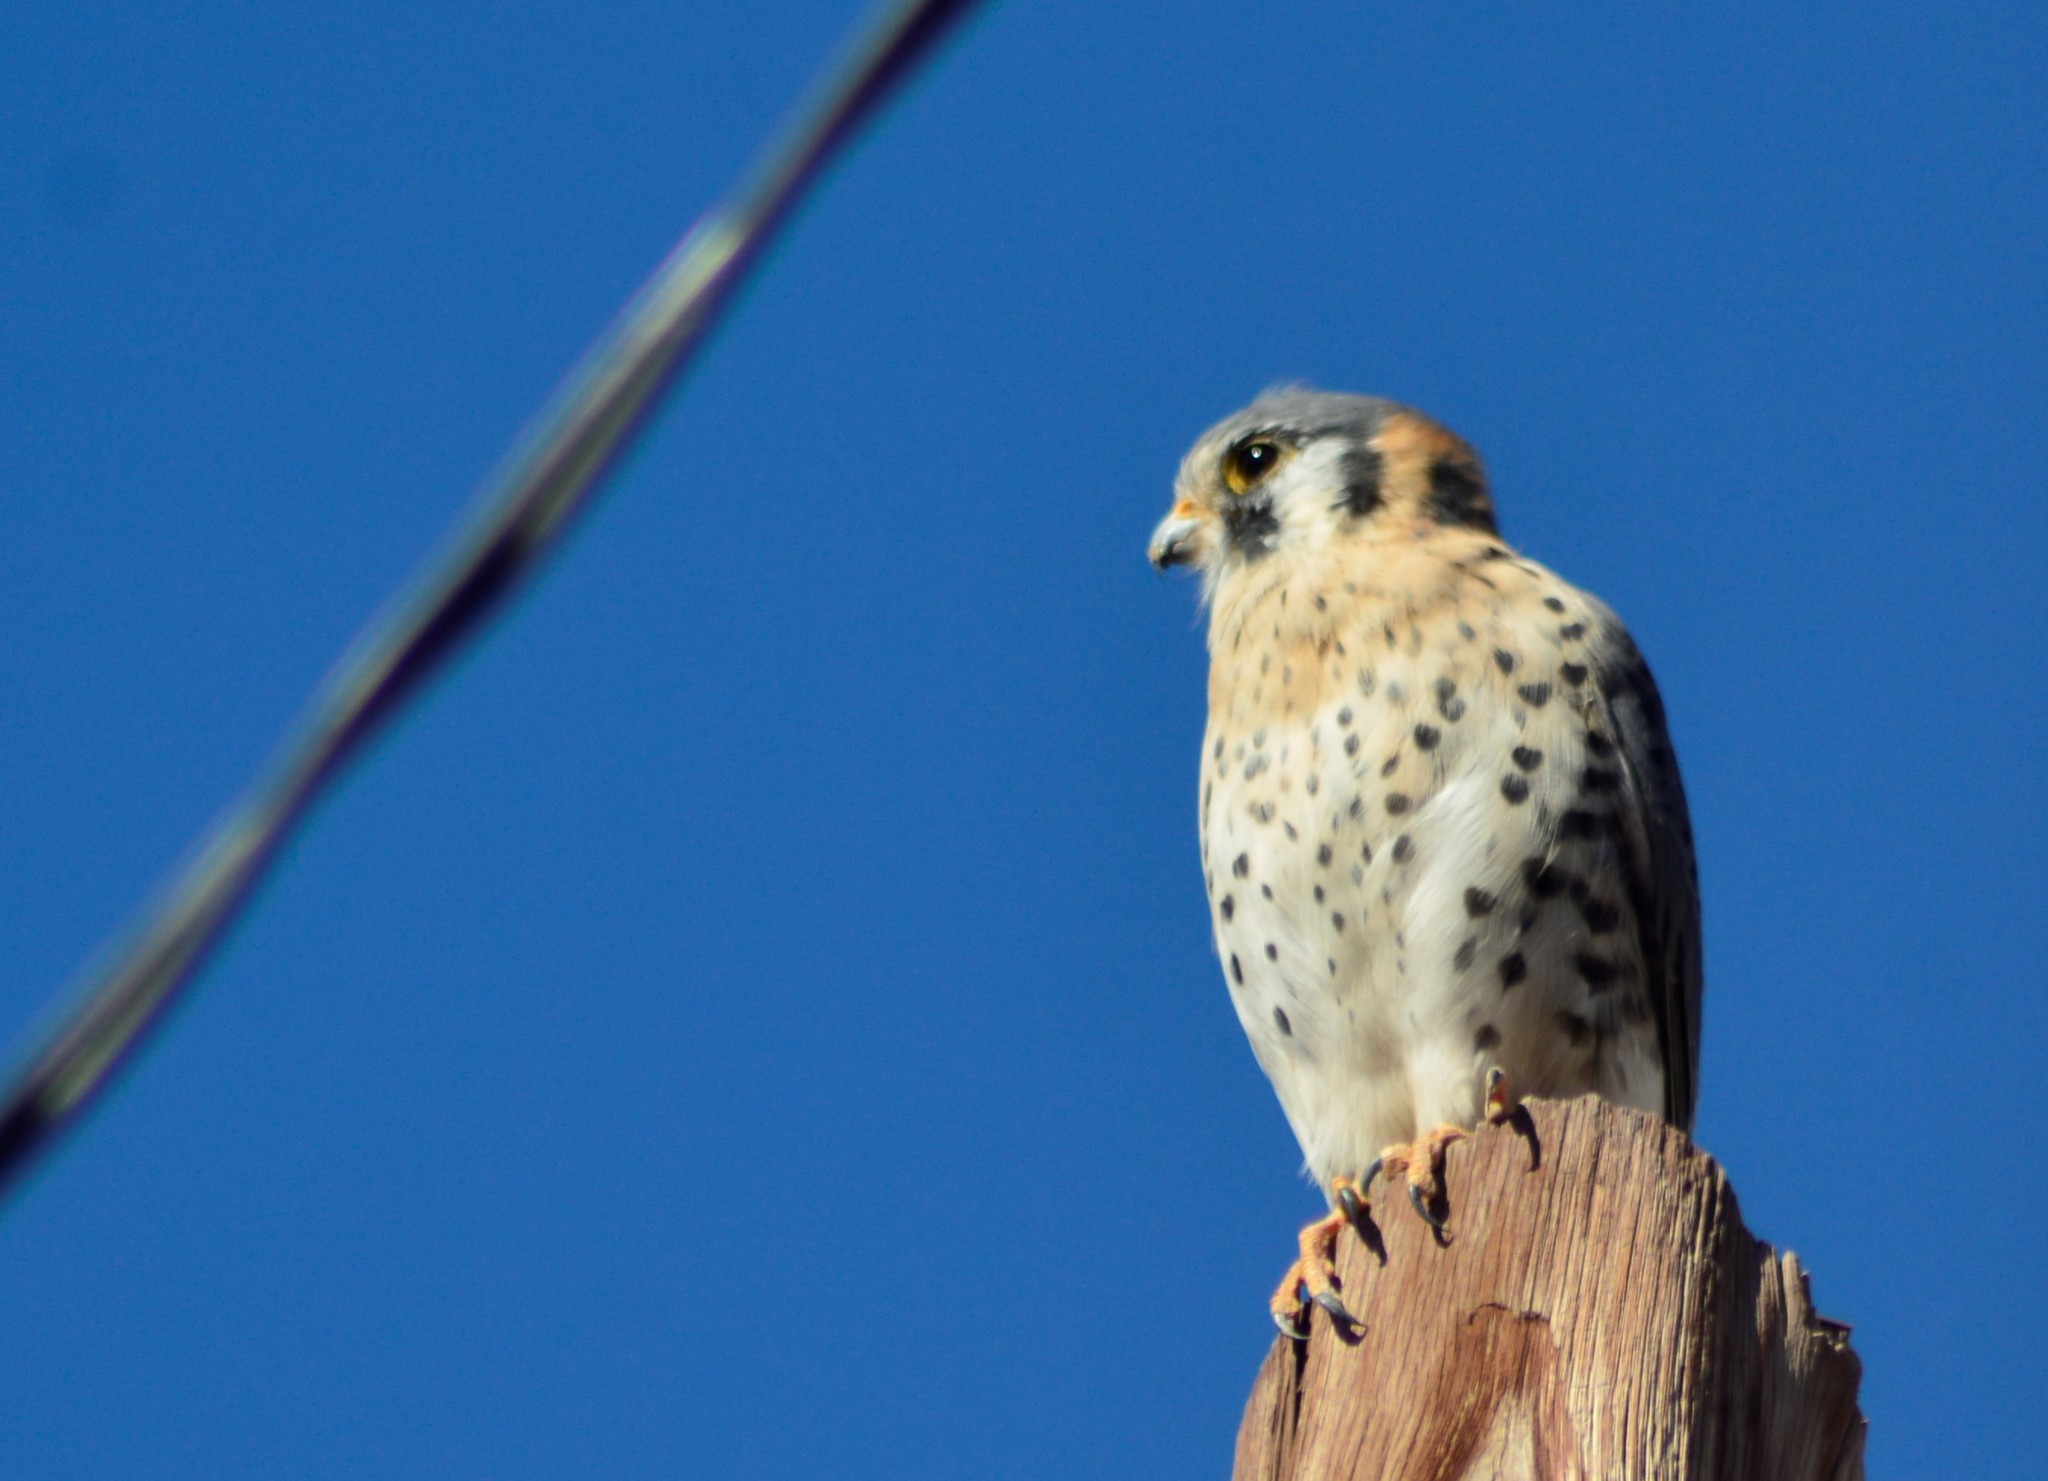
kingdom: Animalia
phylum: Chordata
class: Aves
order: Falconiformes
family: Falconidae
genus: Falco
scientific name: Falco sparverius
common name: American kestrel
